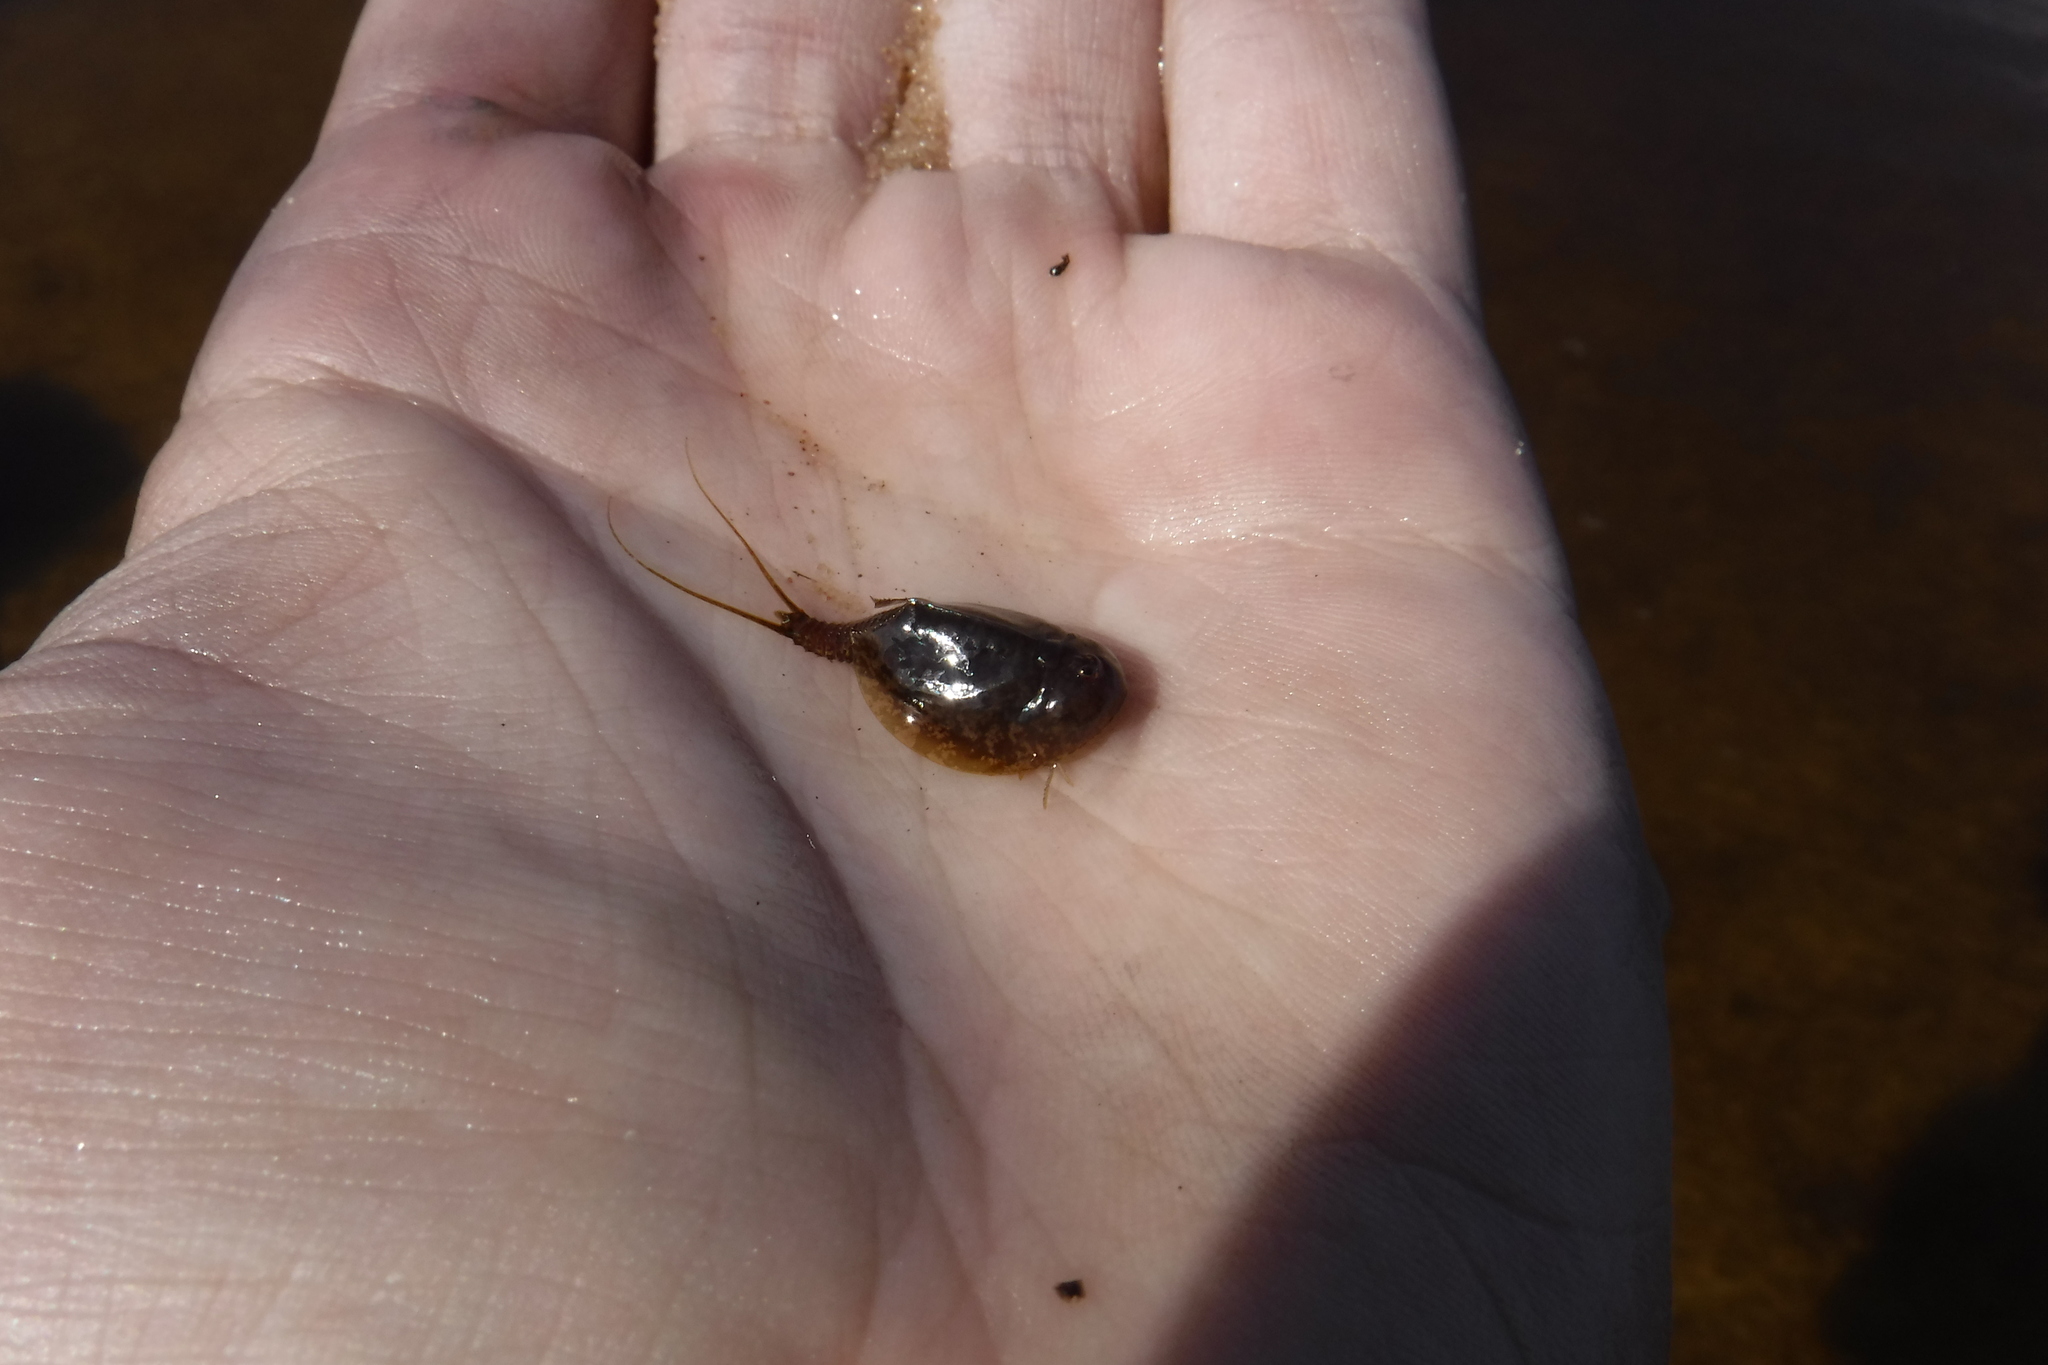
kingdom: Animalia
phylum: Arthropoda
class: Branchiopoda
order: Notostraca
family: Triopsidae
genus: Lepidurus
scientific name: Lepidurus arcticus
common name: Arctic tadpole shrimp
